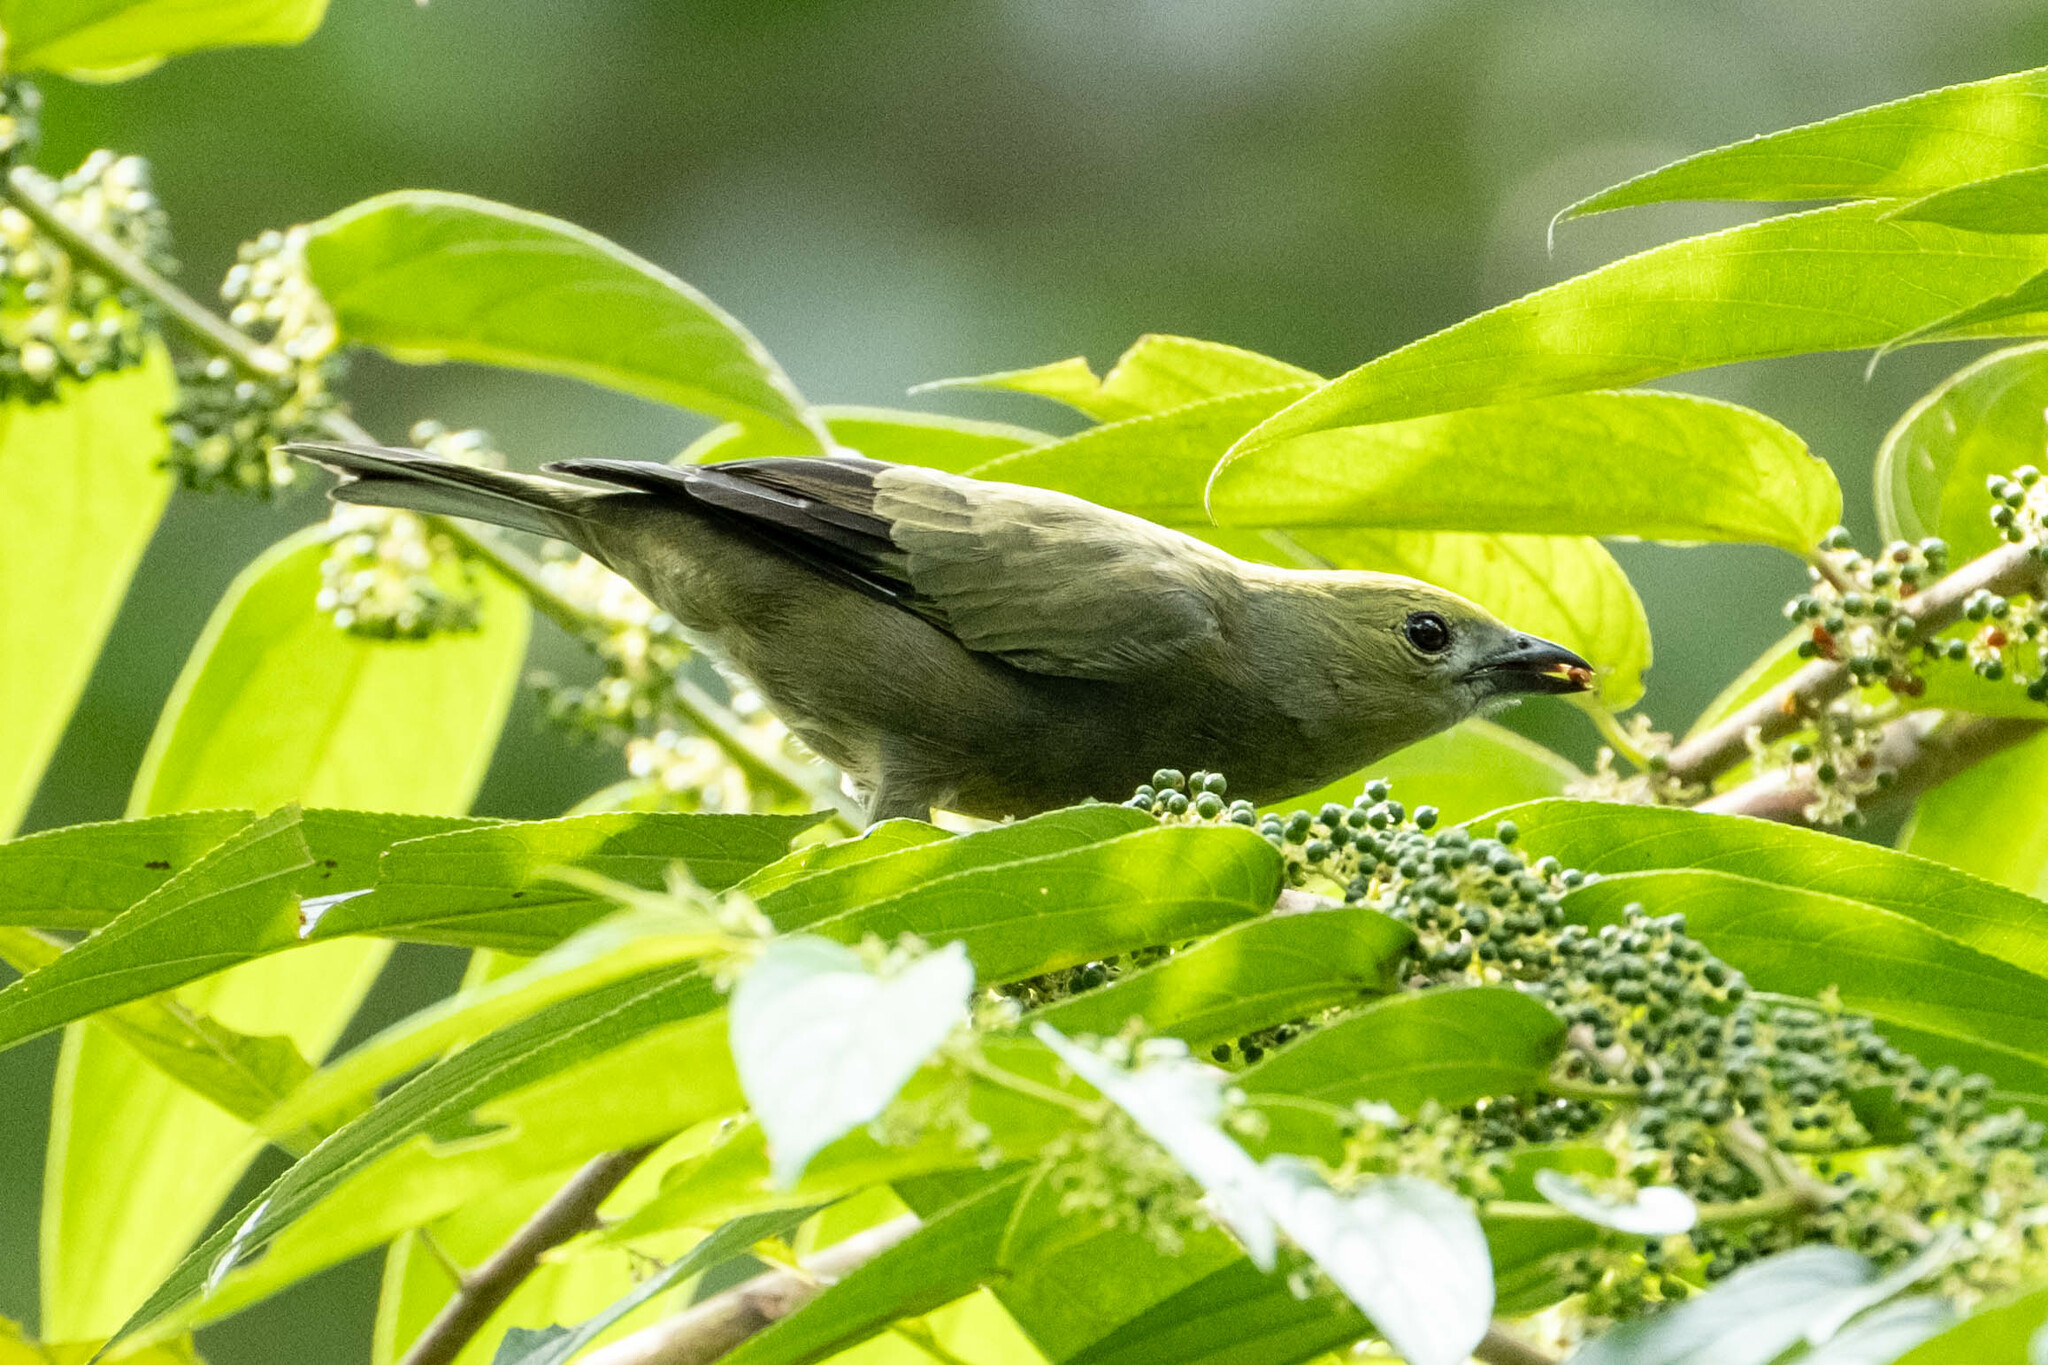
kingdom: Animalia
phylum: Chordata
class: Aves
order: Passeriformes
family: Thraupidae
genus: Thraupis
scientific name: Thraupis palmarum
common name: Palm tanager
